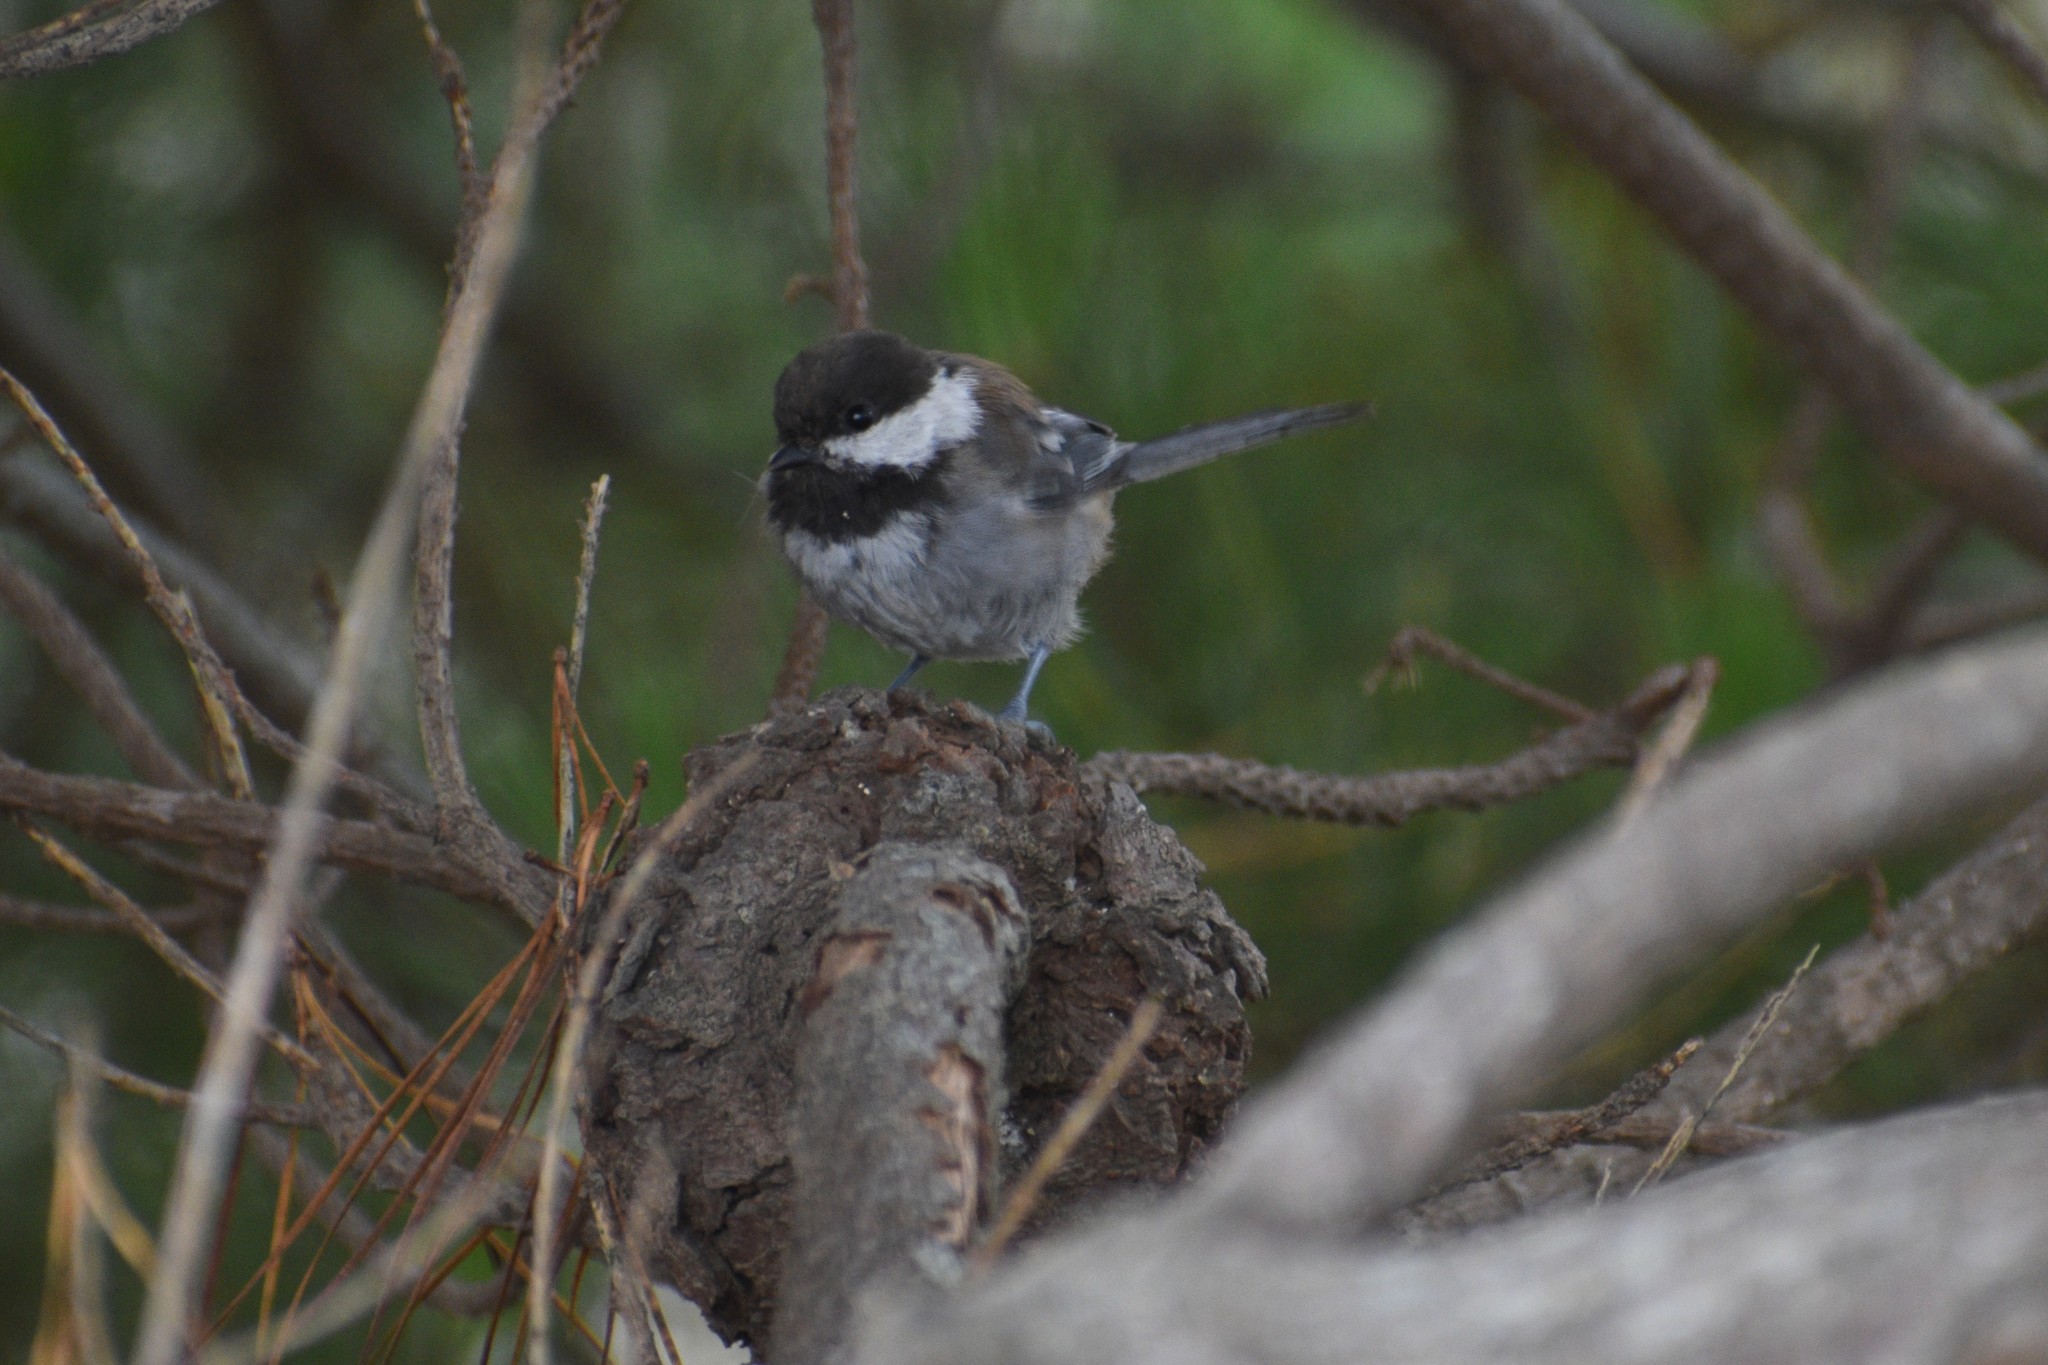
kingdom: Animalia
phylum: Chordata
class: Aves
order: Passeriformes
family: Paridae
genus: Poecile
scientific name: Poecile rufescens
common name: Chestnut-backed chickadee
